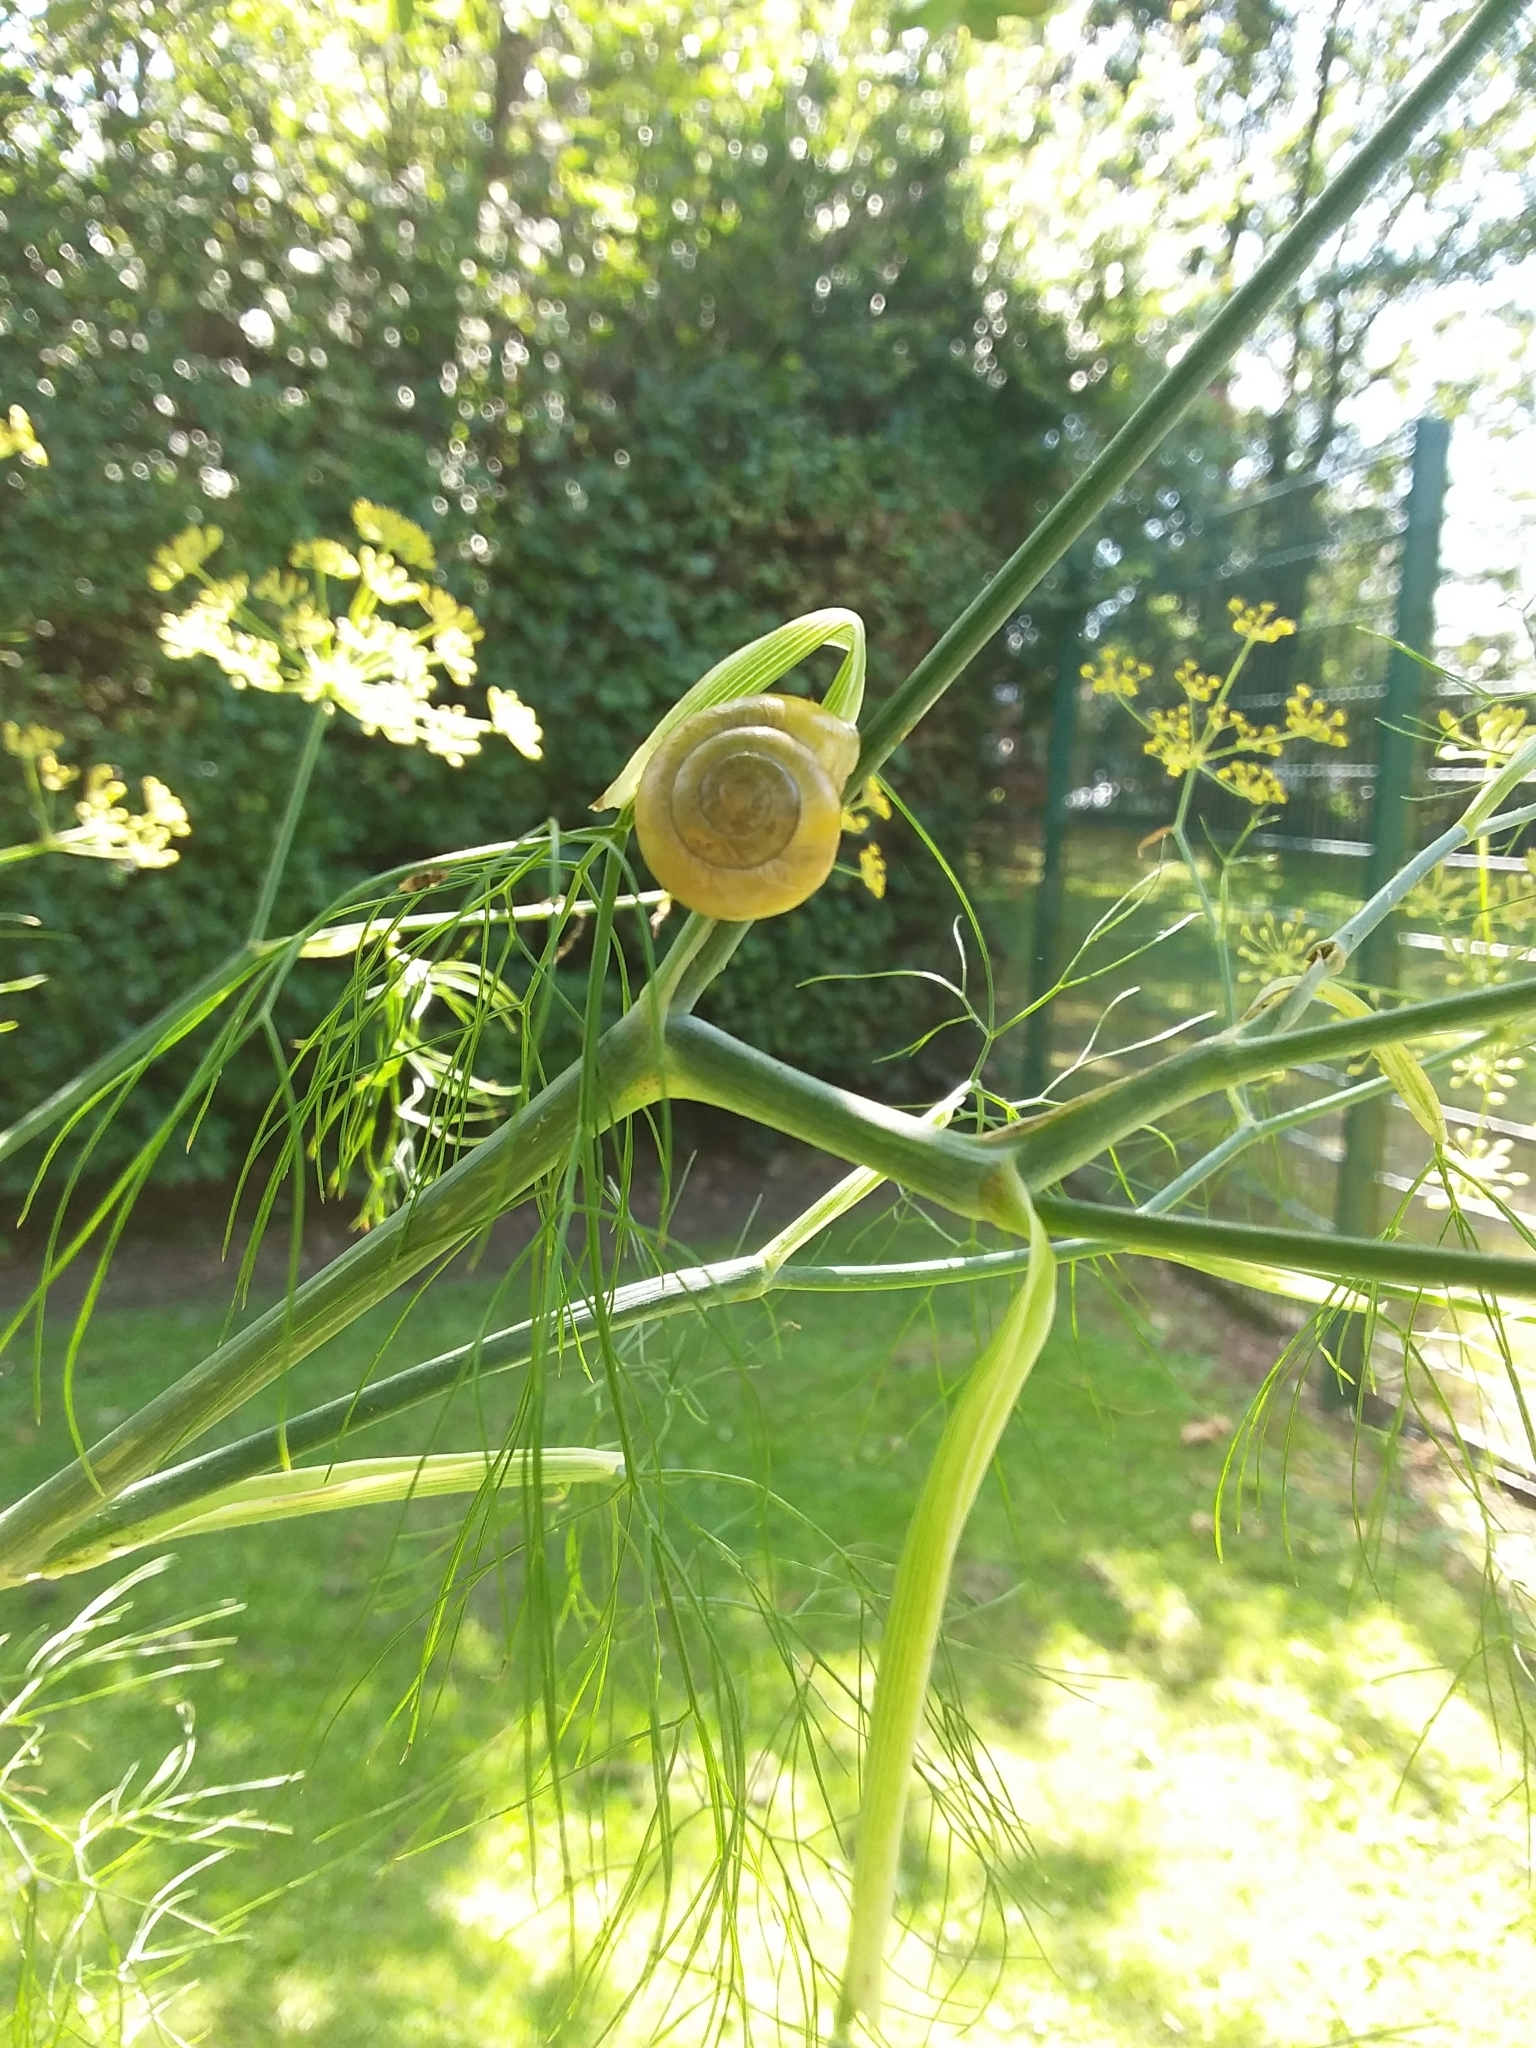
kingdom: Animalia
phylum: Mollusca
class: Gastropoda
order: Stylommatophora
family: Helicidae
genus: Cepaea
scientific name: Cepaea hortensis
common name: White-lip gardensnail
